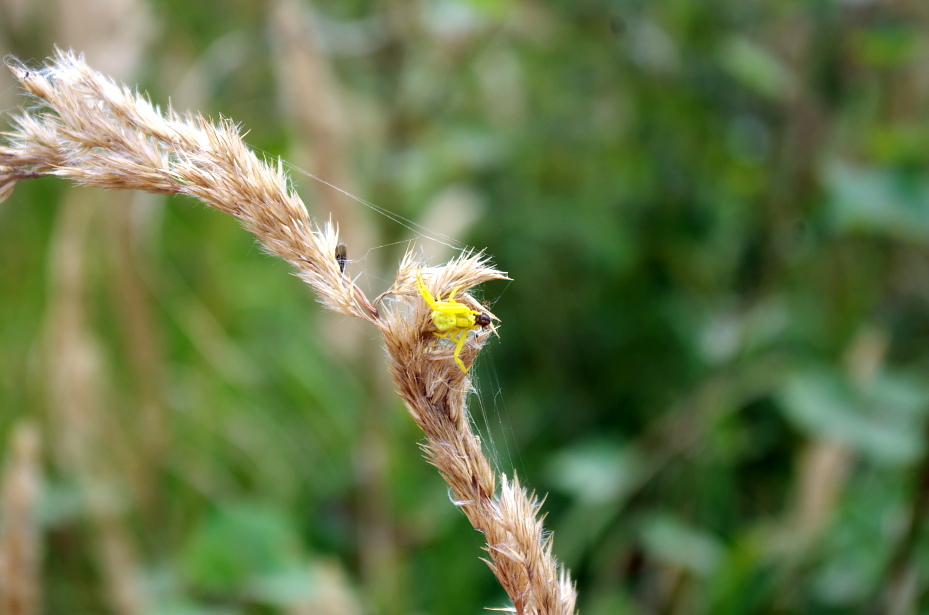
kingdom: Animalia
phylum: Arthropoda
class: Arachnida
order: Araneae
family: Thomisidae
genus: Misumena
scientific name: Misumena vatia
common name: Goldenrod crab spider
